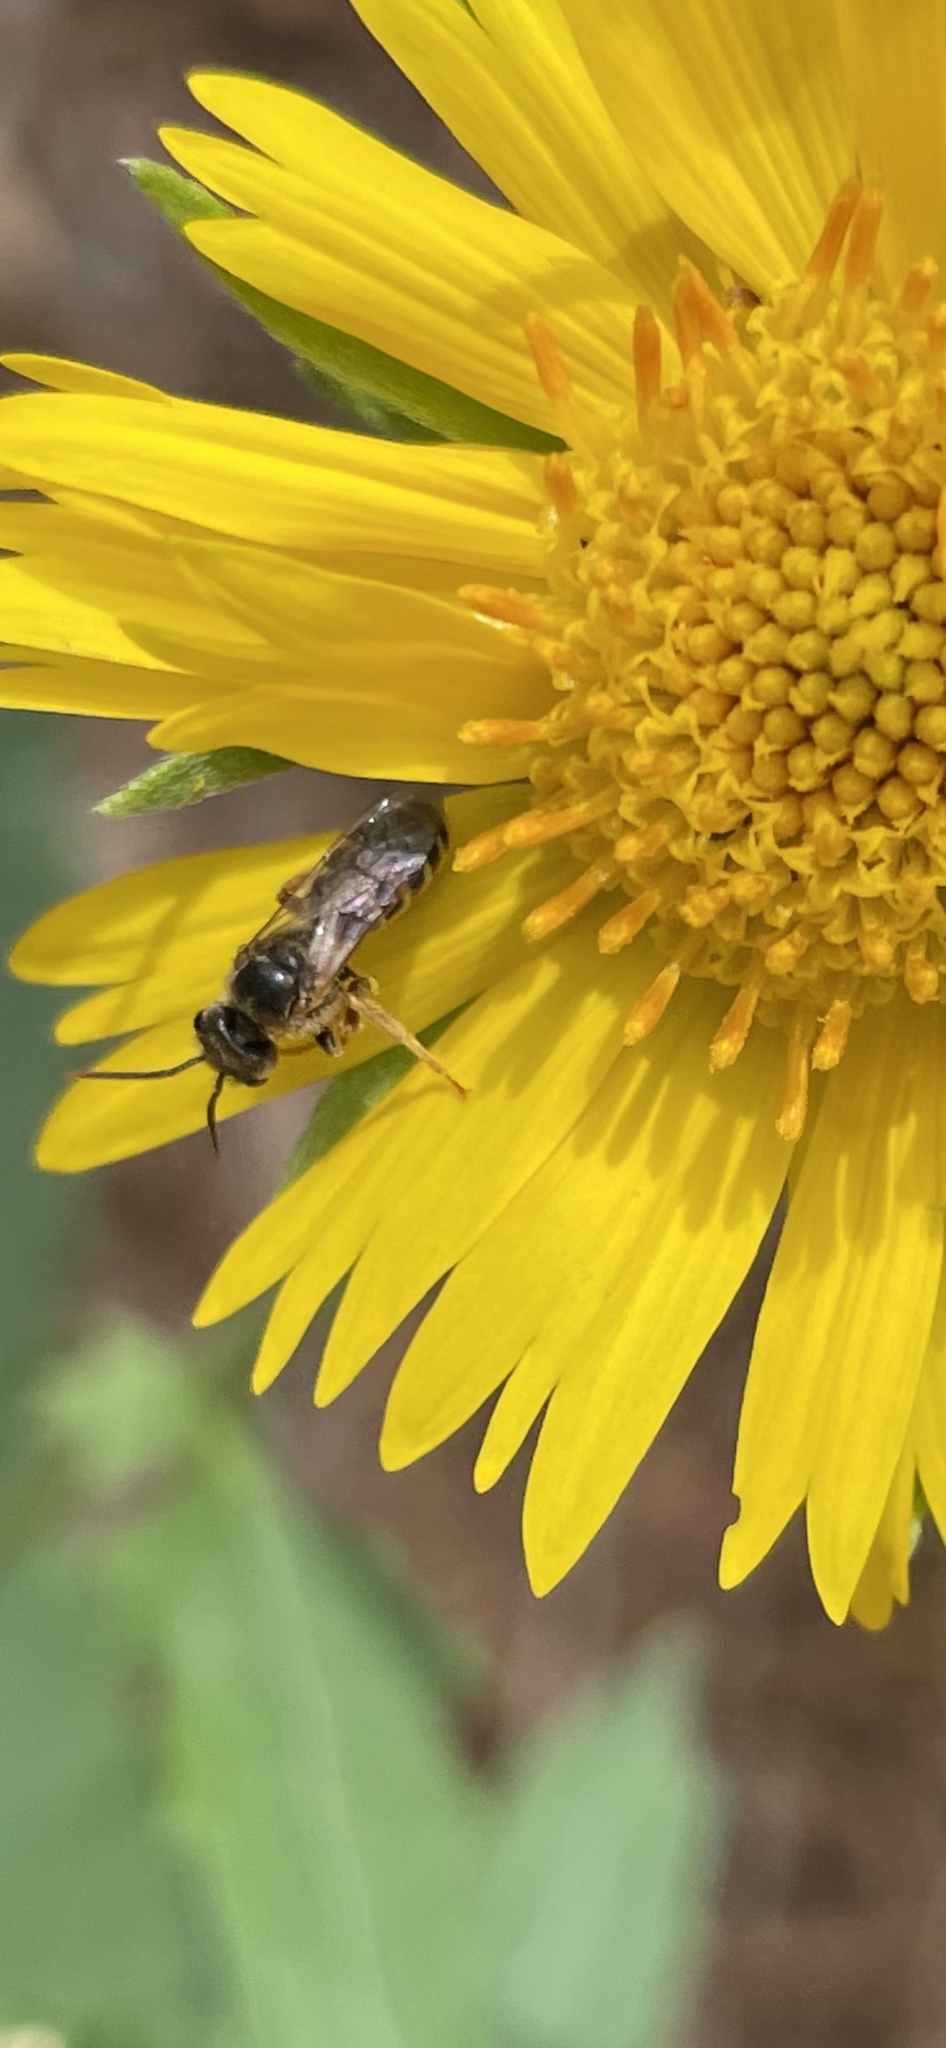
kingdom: Animalia
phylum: Arthropoda
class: Insecta
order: Hymenoptera
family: Halictidae
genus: Halictus
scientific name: Halictus ligatus
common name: Ligated furrow bee
